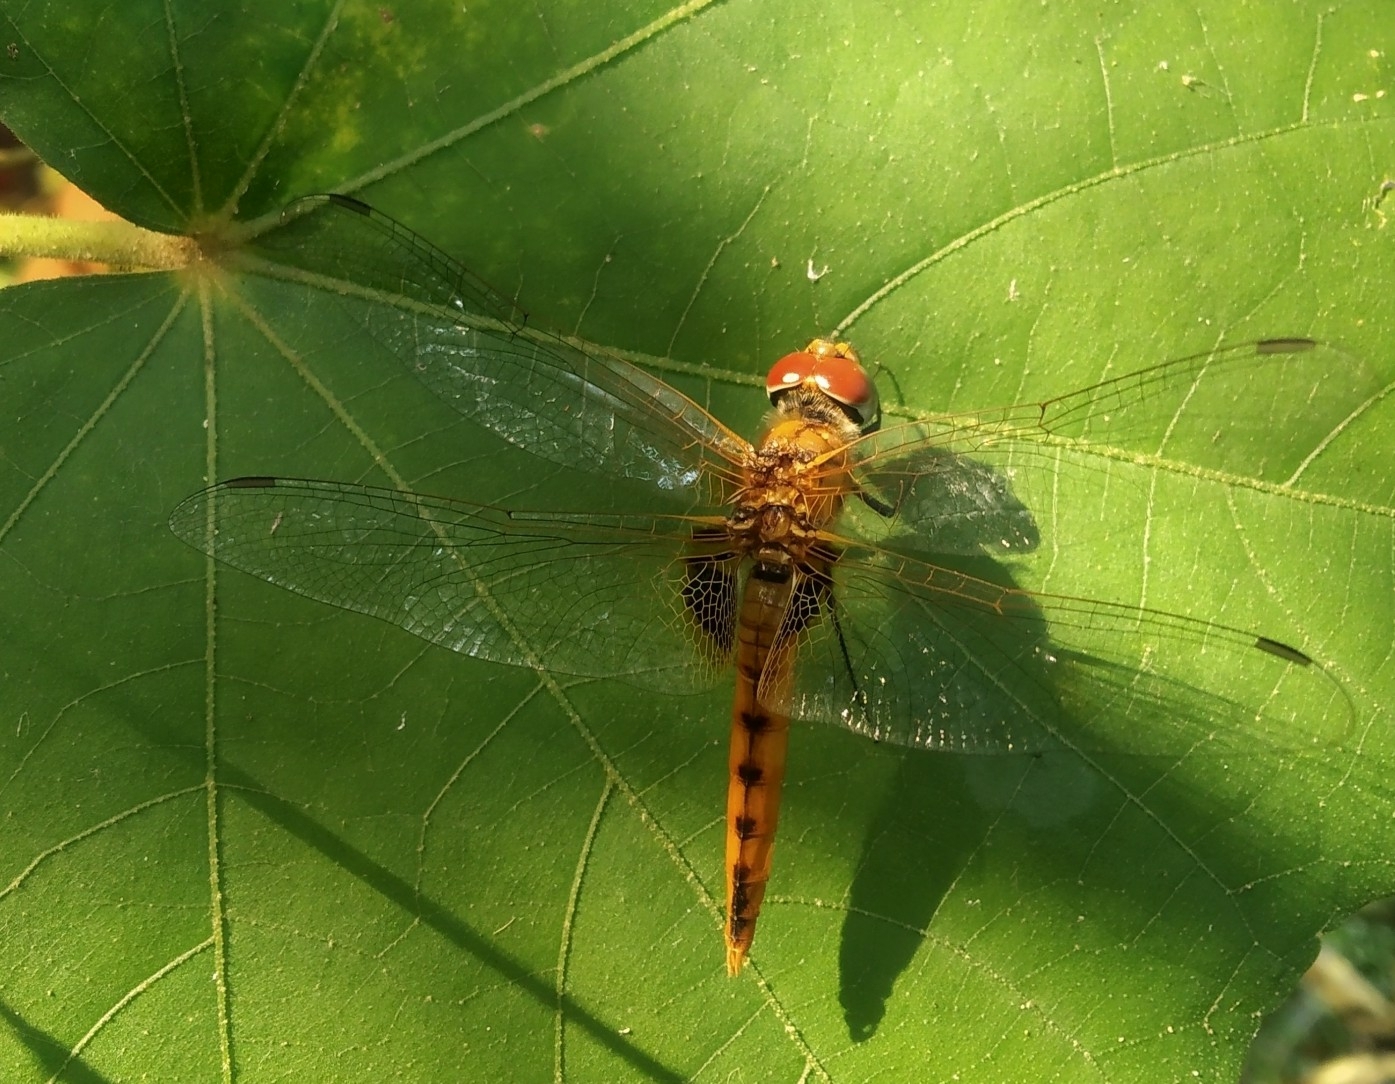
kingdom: Animalia
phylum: Arthropoda
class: Insecta
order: Odonata
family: Libellulidae
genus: Urothemis
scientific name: Urothemis signata
